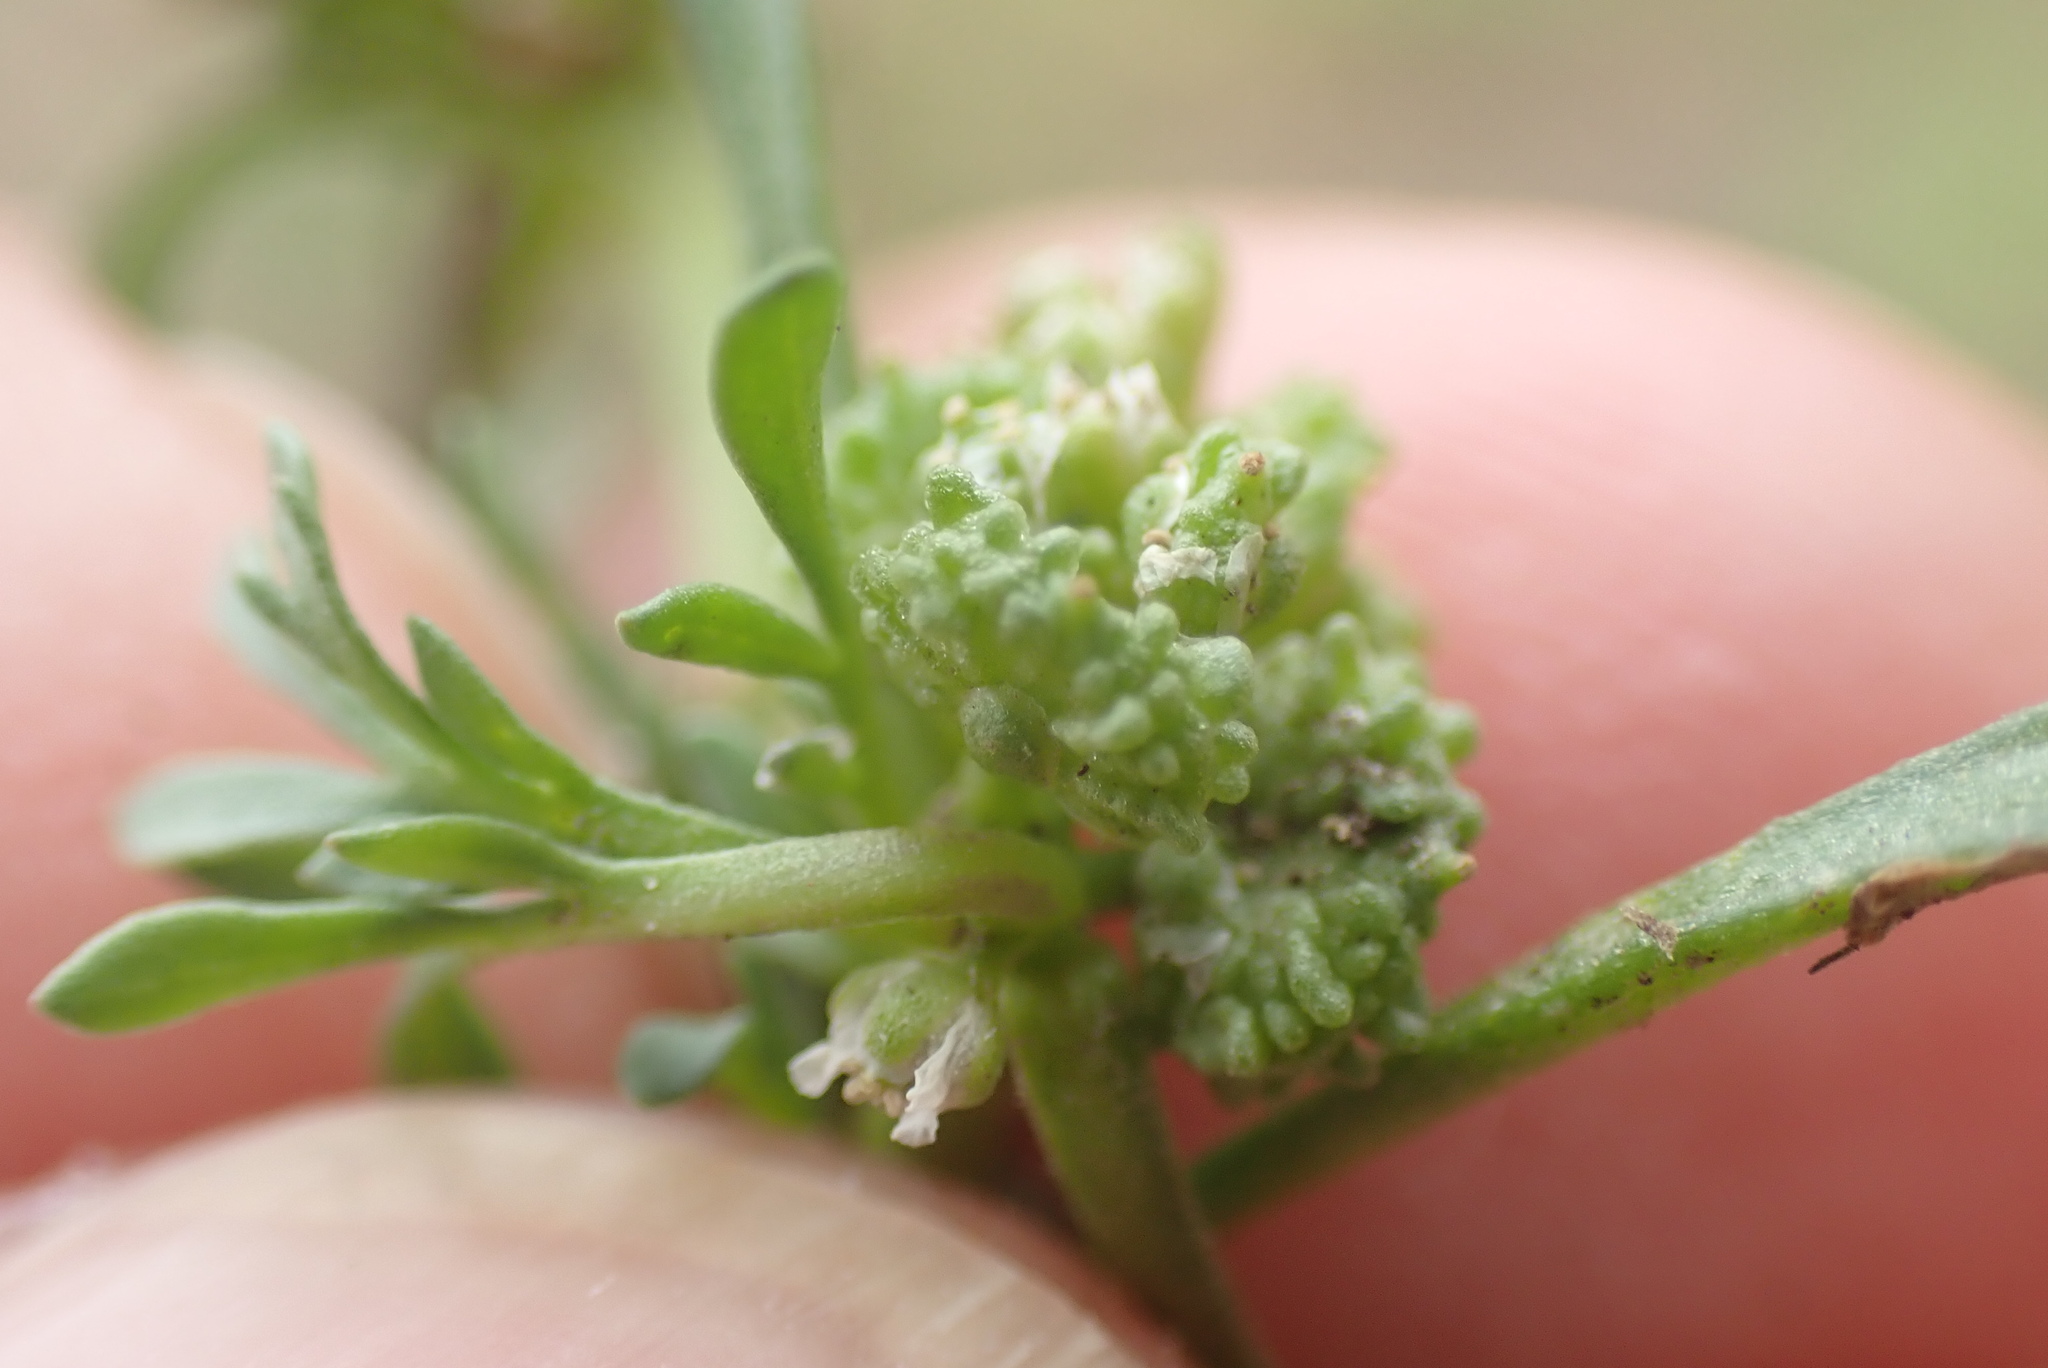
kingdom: Plantae
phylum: Tracheophyta
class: Magnoliopsida
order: Brassicales
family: Brassicaceae
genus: Lepidium
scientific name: Lepidium coronopus
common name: Greater swinecress
